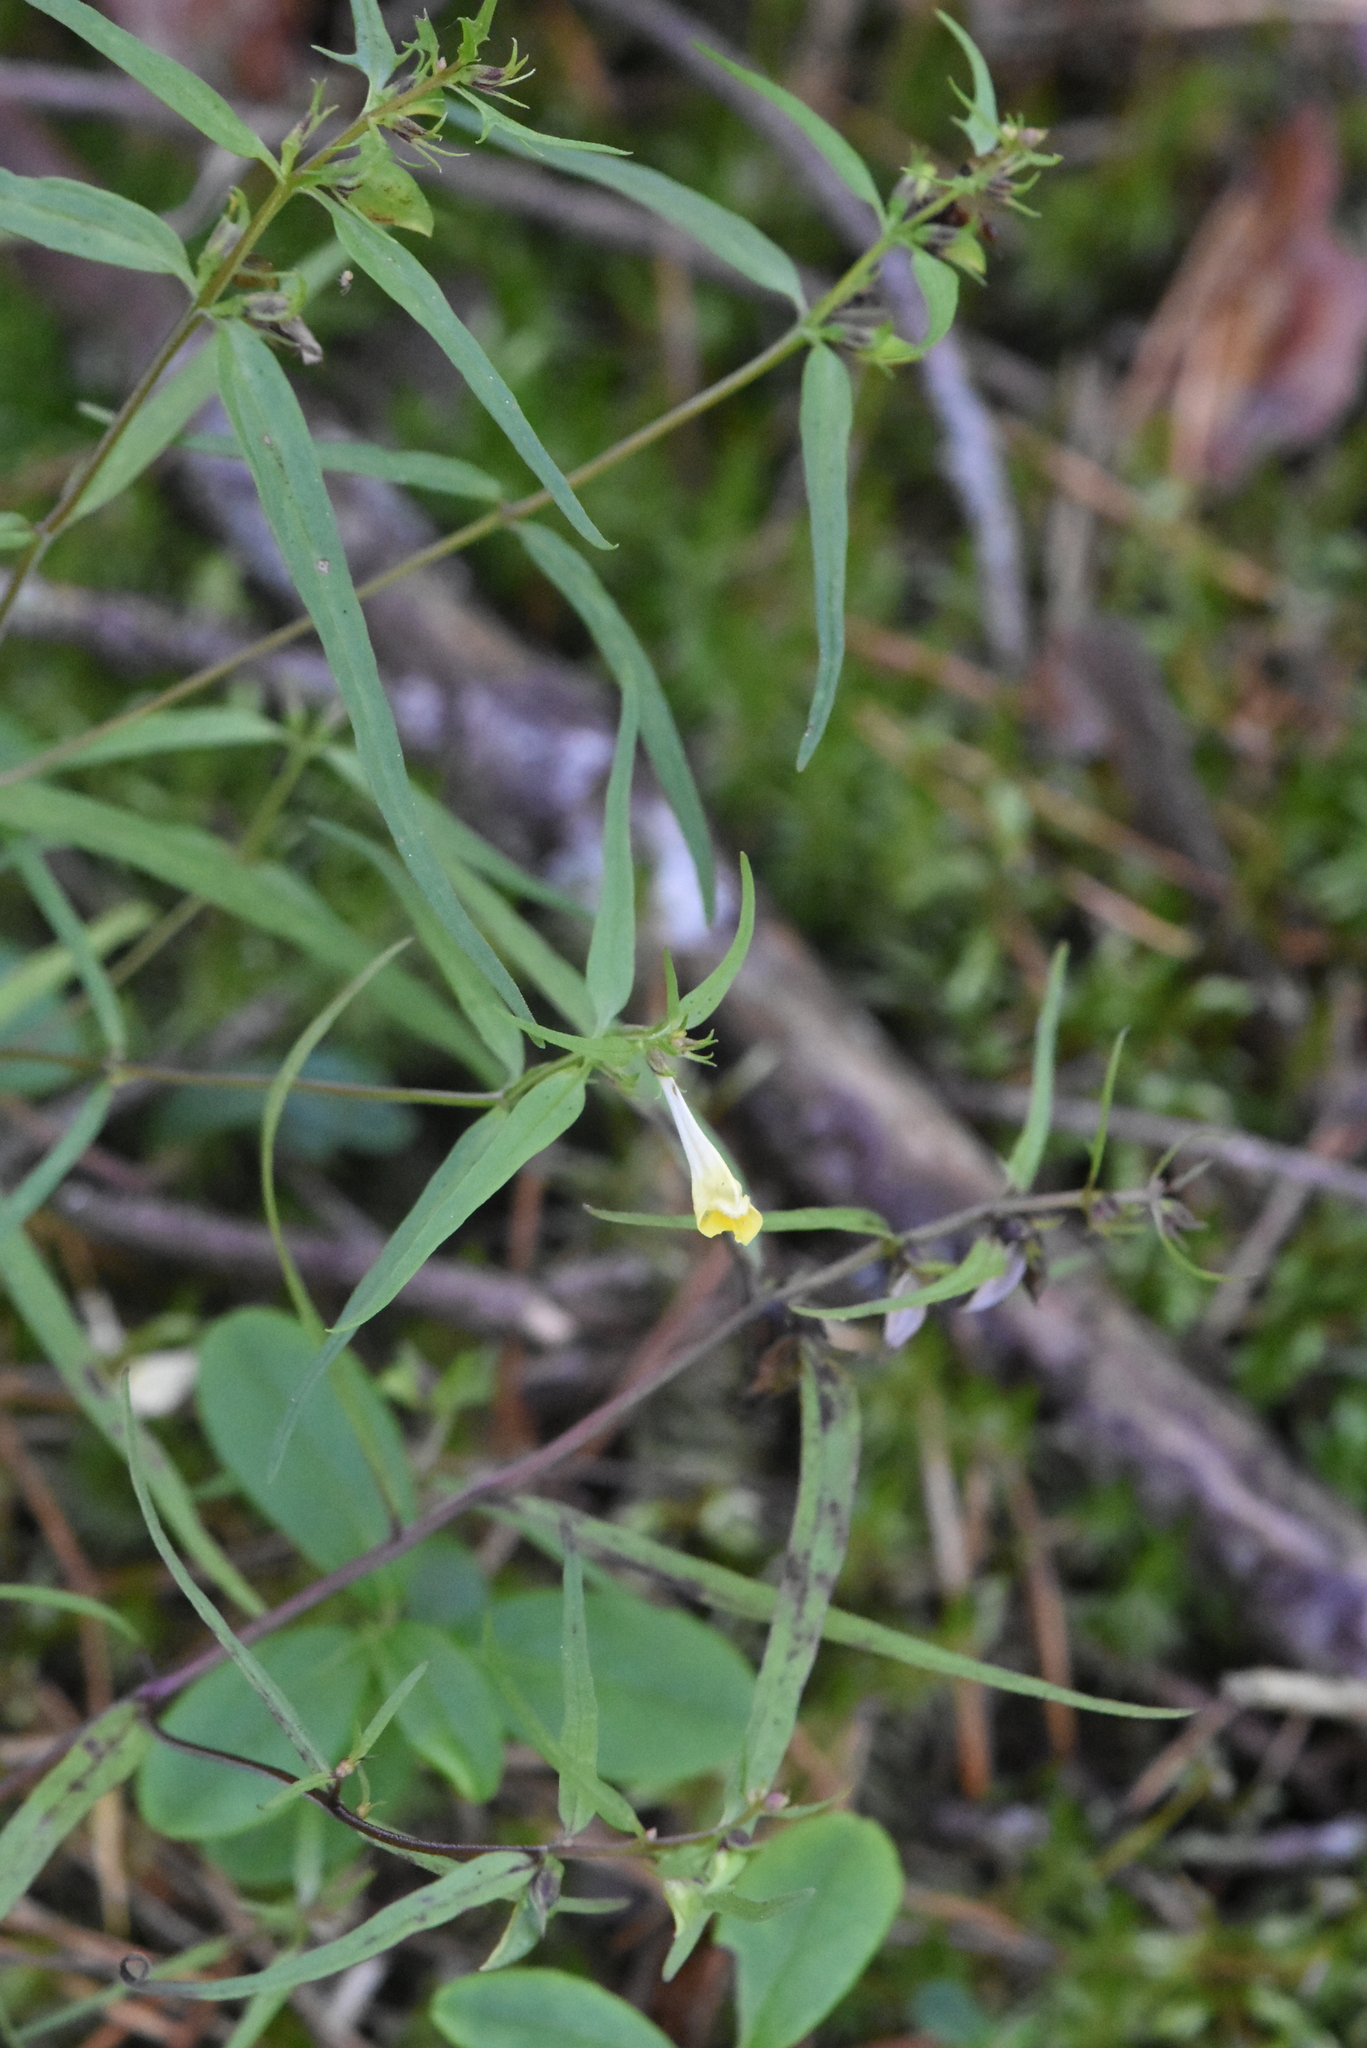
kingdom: Plantae
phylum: Tracheophyta
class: Magnoliopsida
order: Lamiales
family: Orobanchaceae
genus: Melampyrum
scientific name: Melampyrum pratense
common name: Common cow-wheat
